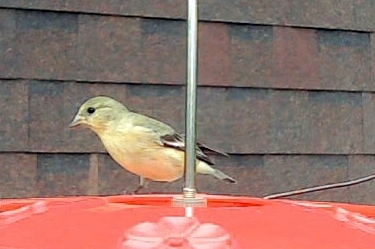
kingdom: Animalia
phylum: Chordata
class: Aves
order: Passeriformes
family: Fringillidae
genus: Spinus
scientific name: Spinus psaltria
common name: Lesser goldfinch
